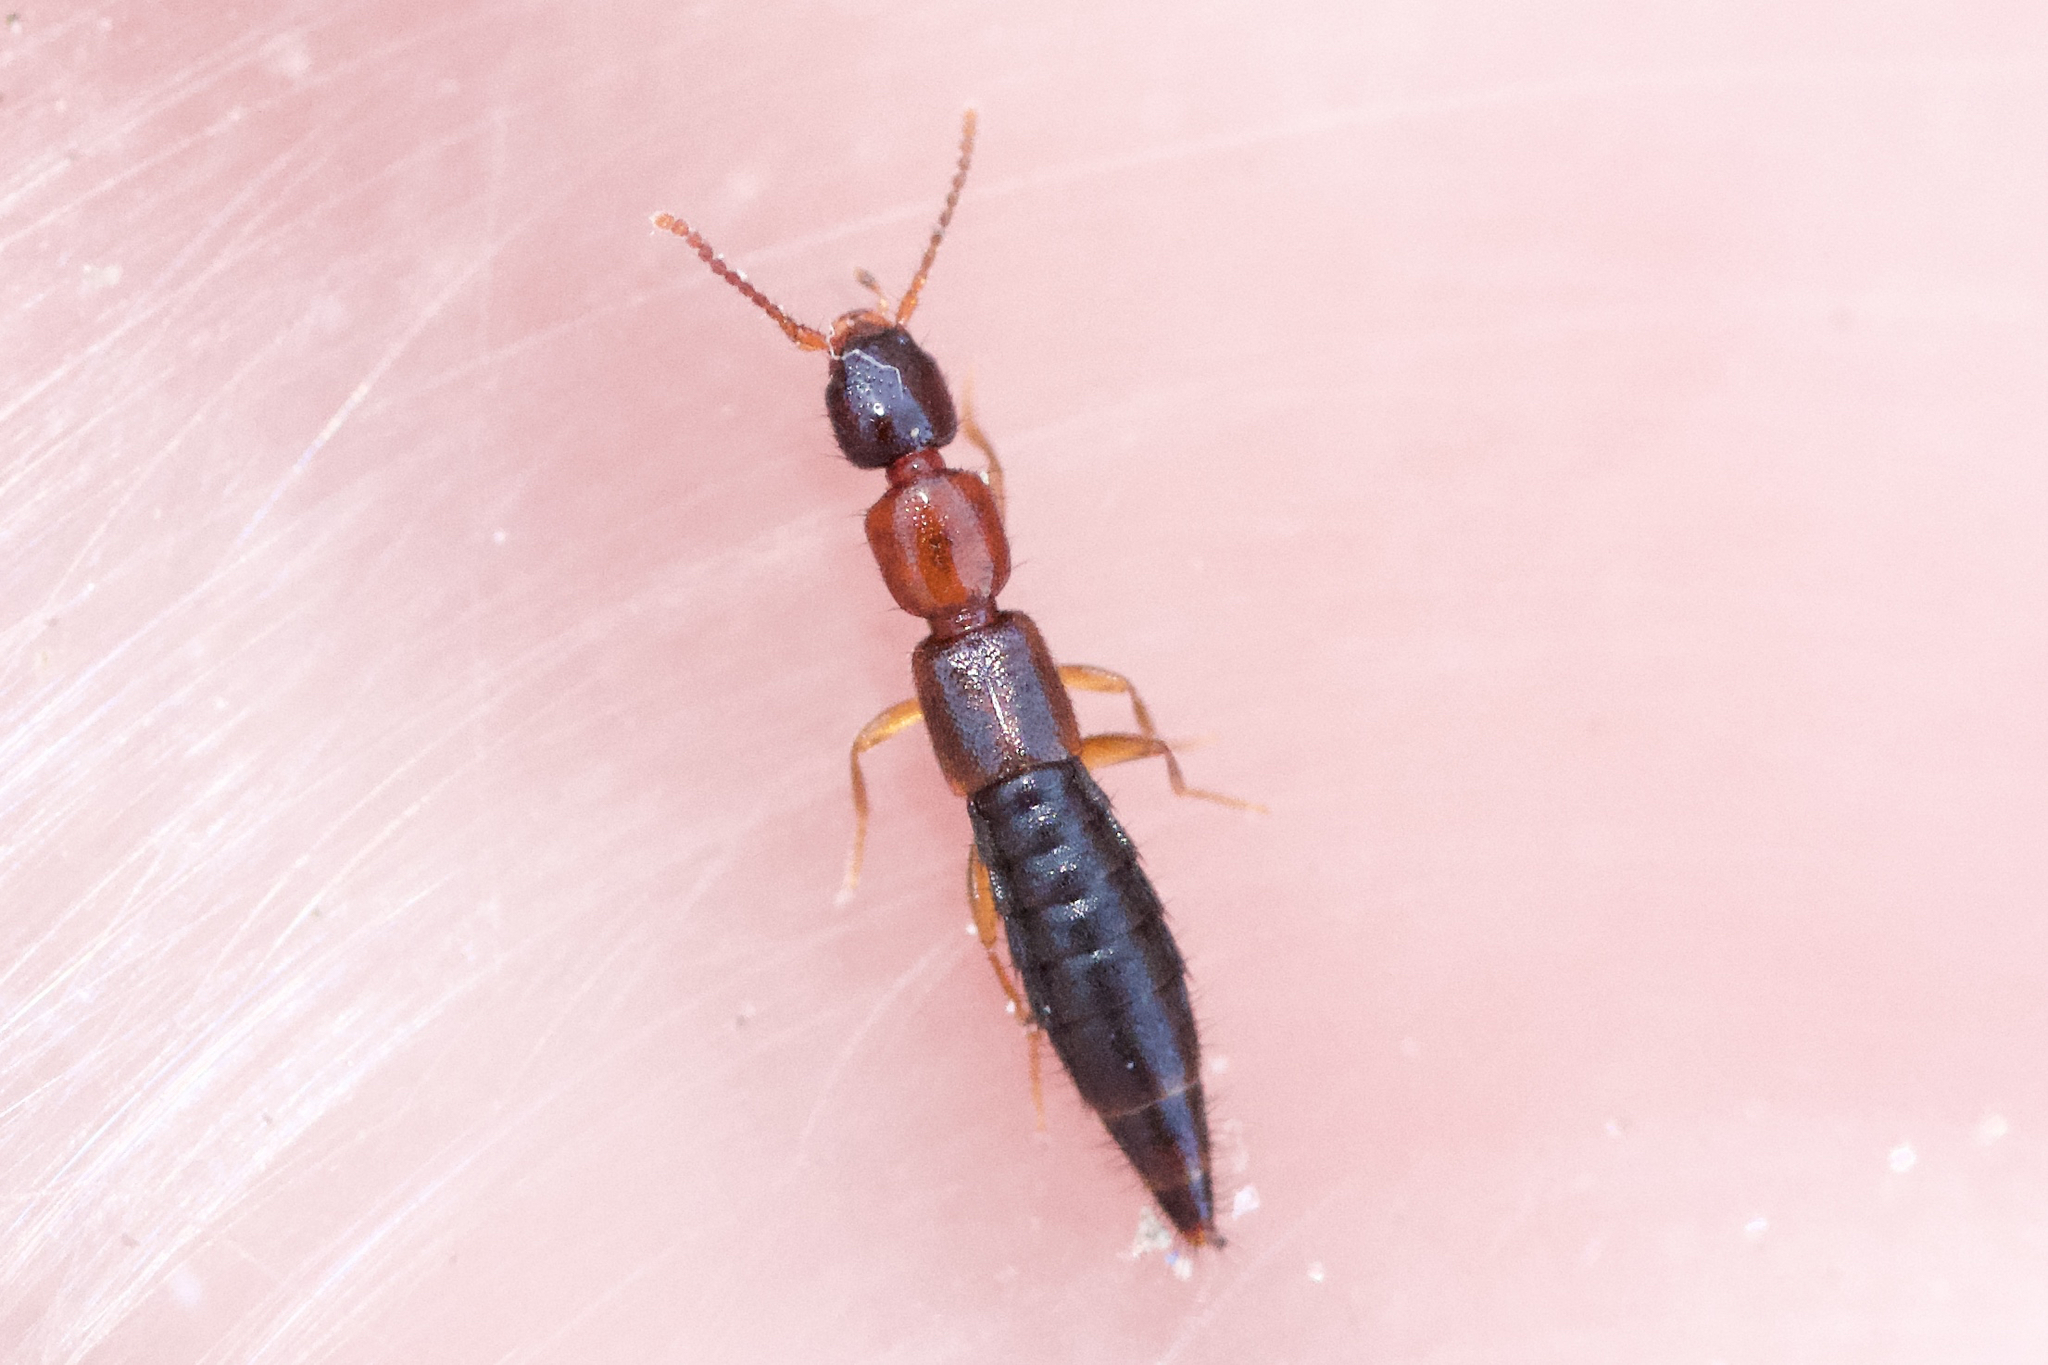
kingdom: Animalia
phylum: Arthropoda
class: Insecta
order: Coleoptera
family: Staphylinidae
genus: Sunius
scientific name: Sunius melanocephalus
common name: Rove beetle
